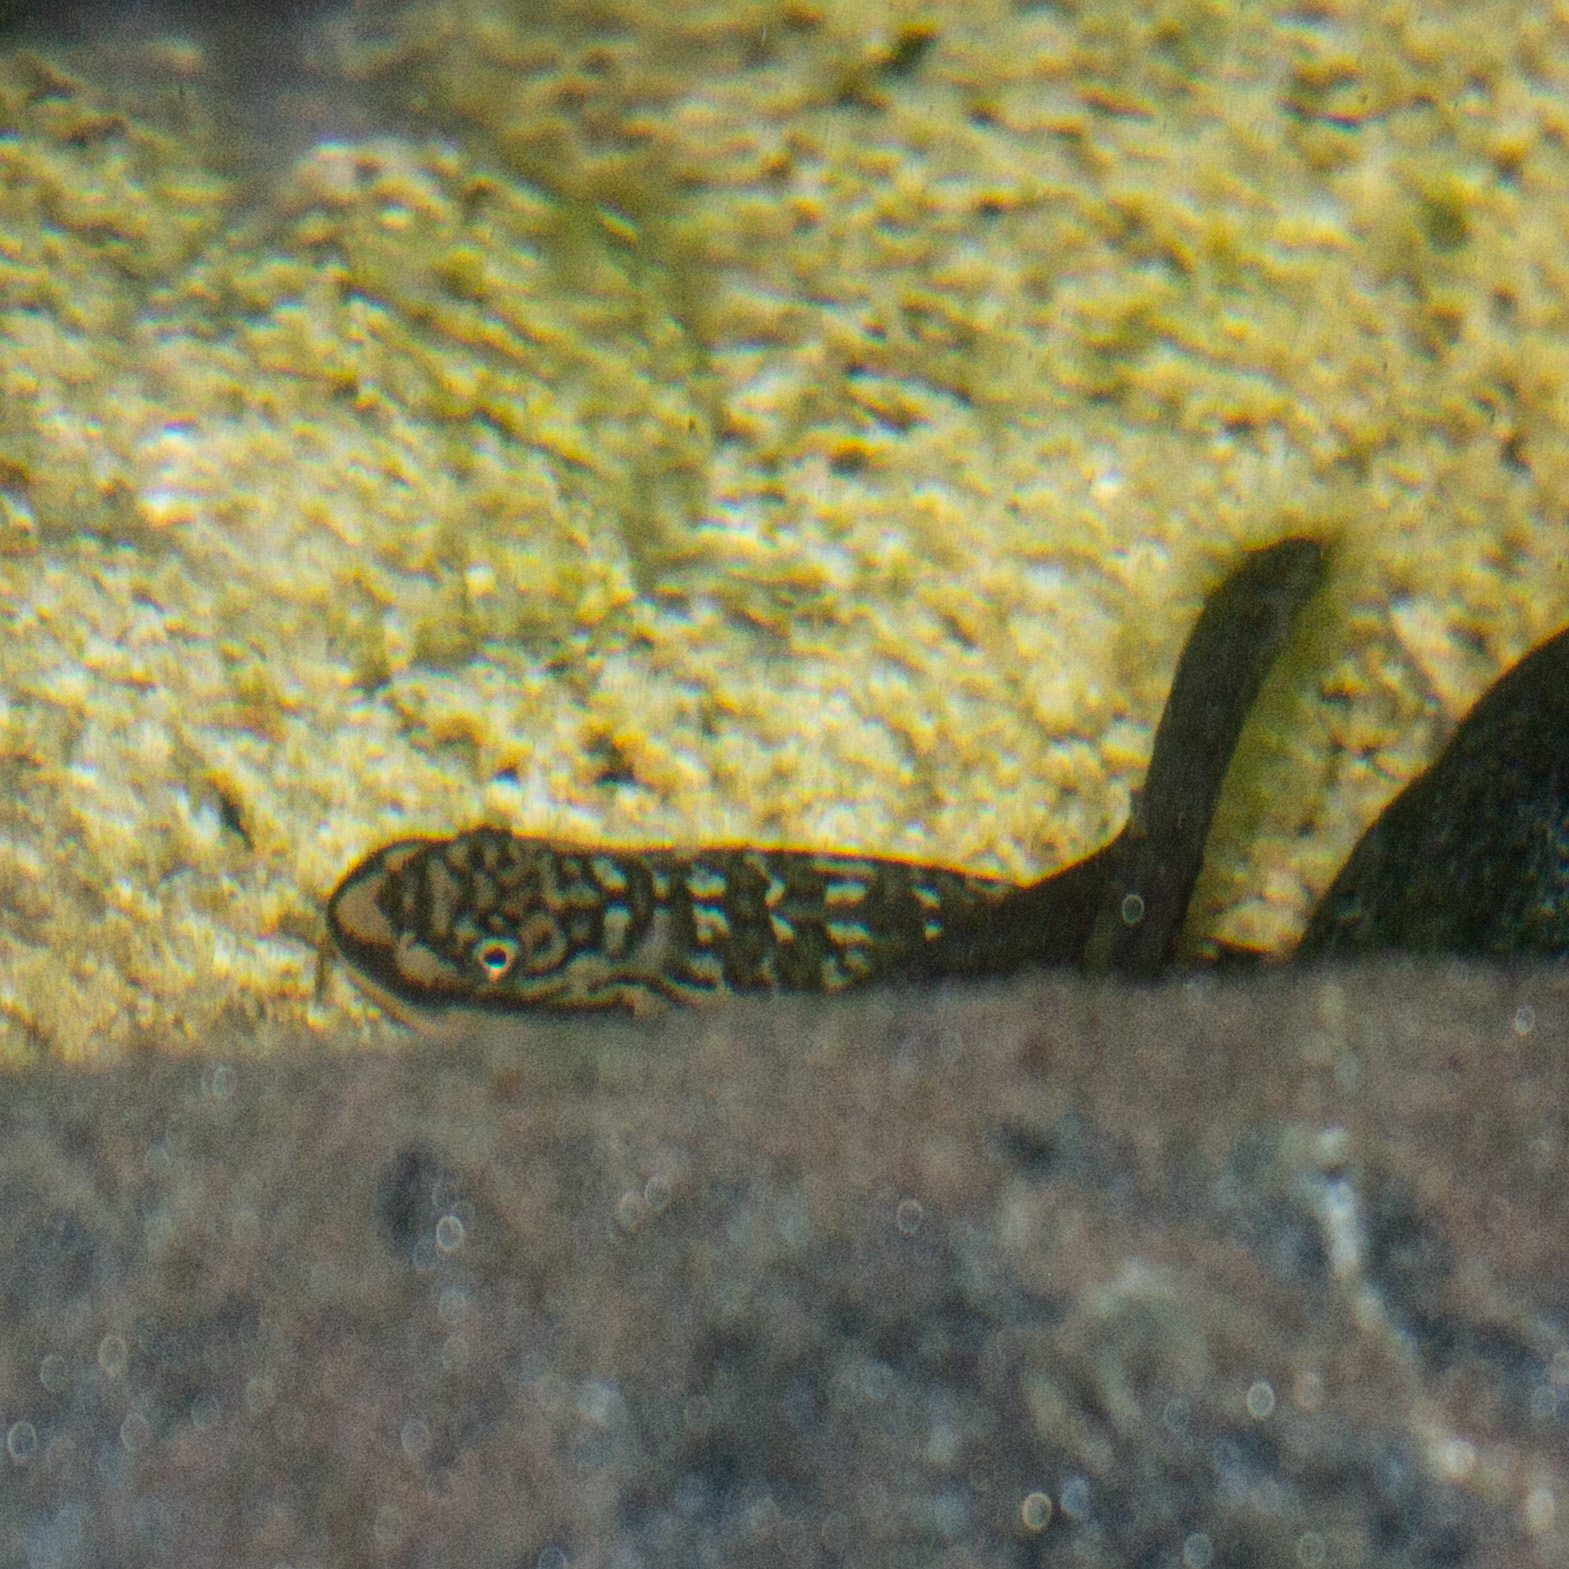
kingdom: Animalia
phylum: Chordata
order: Perciformes
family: Gobiidae
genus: Sicydium
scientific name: Sicydium punctatum
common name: Spotted algae-eating goby
